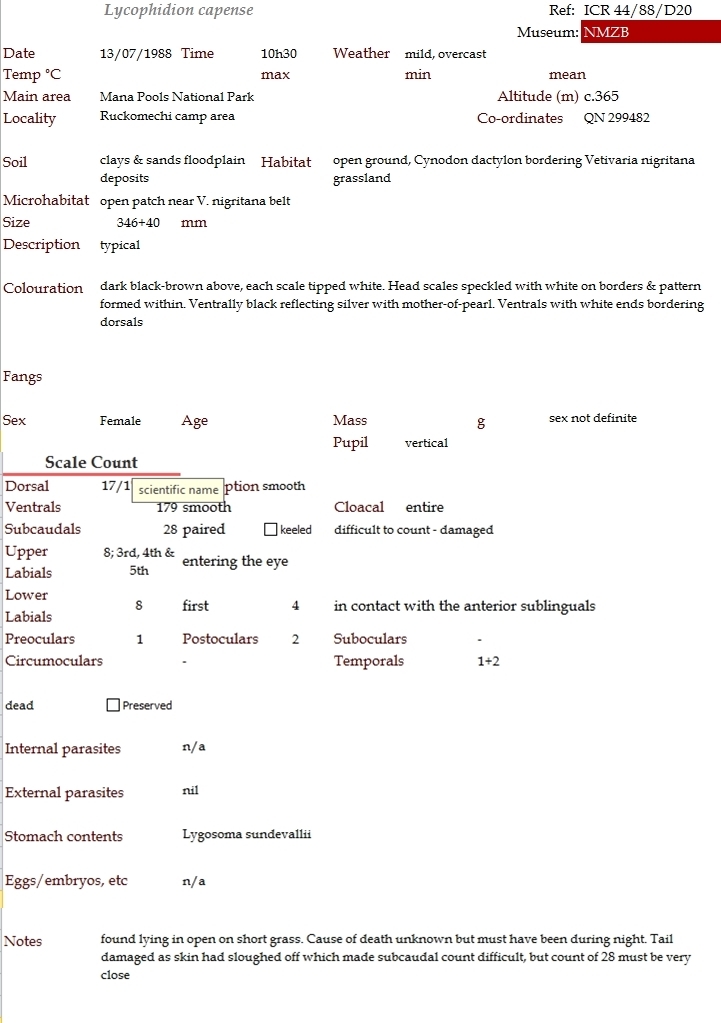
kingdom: Animalia
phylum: Chordata
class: Squamata
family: Lamprophiidae
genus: Lycophidion
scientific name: Lycophidion capense
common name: Cape wolf snake
